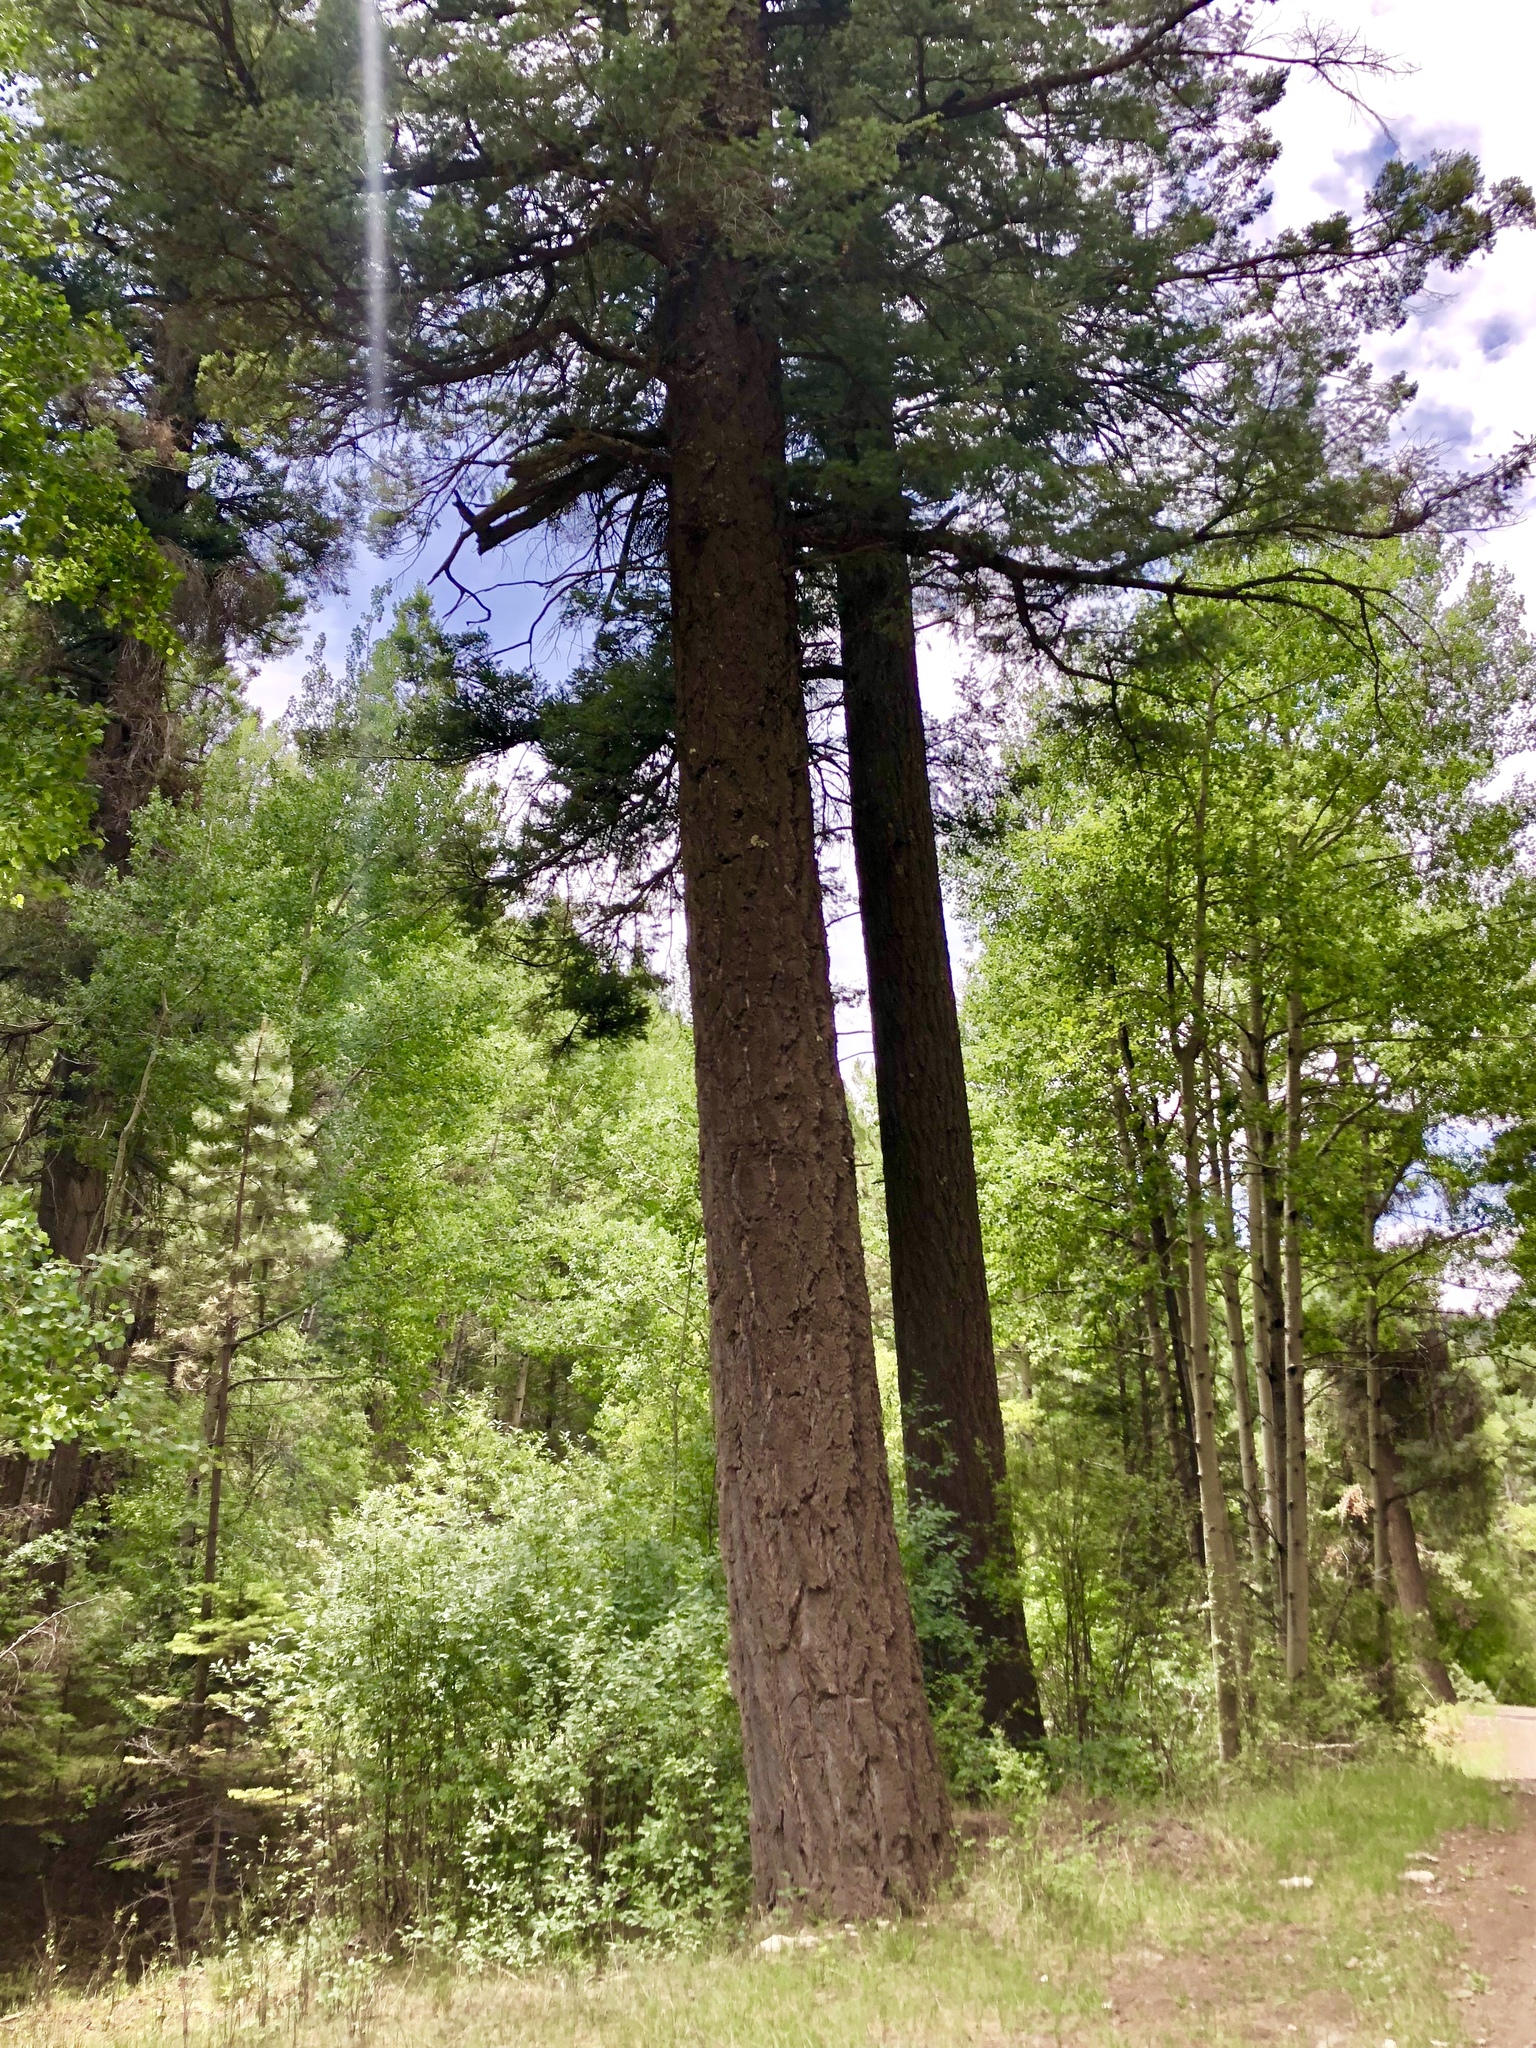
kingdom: Plantae
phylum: Tracheophyta
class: Pinopsida
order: Pinales
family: Pinaceae
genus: Pseudotsuga
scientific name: Pseudotsuga menziesii
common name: Douglas fir
